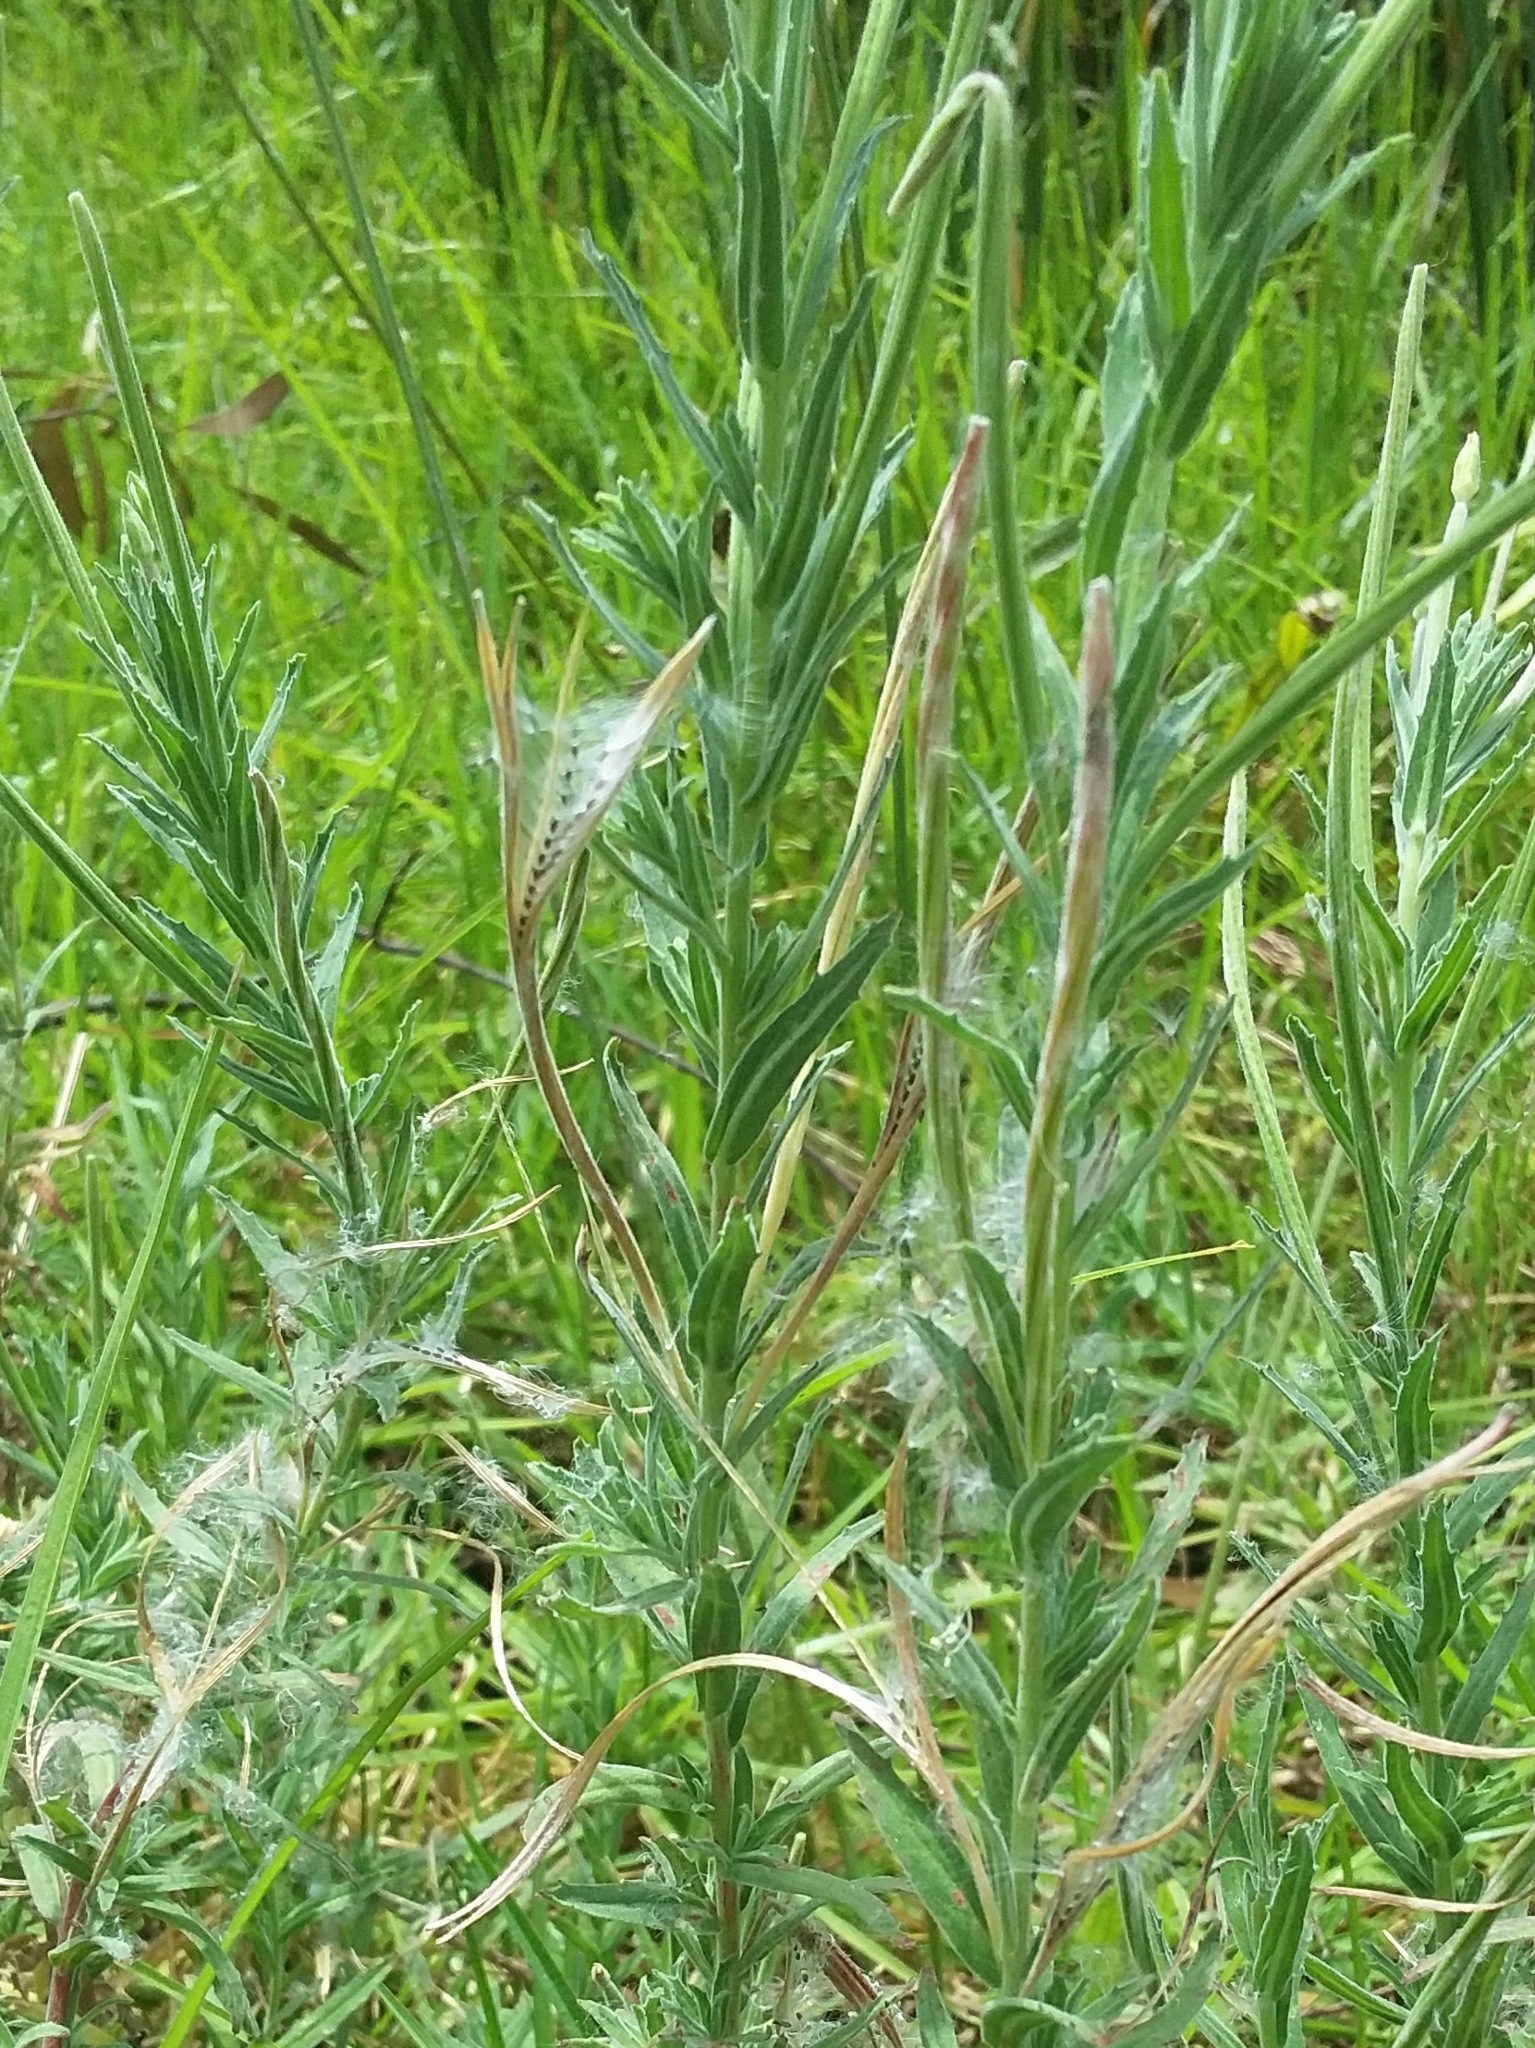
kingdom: Plantae
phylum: Tracheophyta
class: Magnoliopsida
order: Myrtales
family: Onagraceae
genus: Epilobium
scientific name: Epilobium hirtigerum
